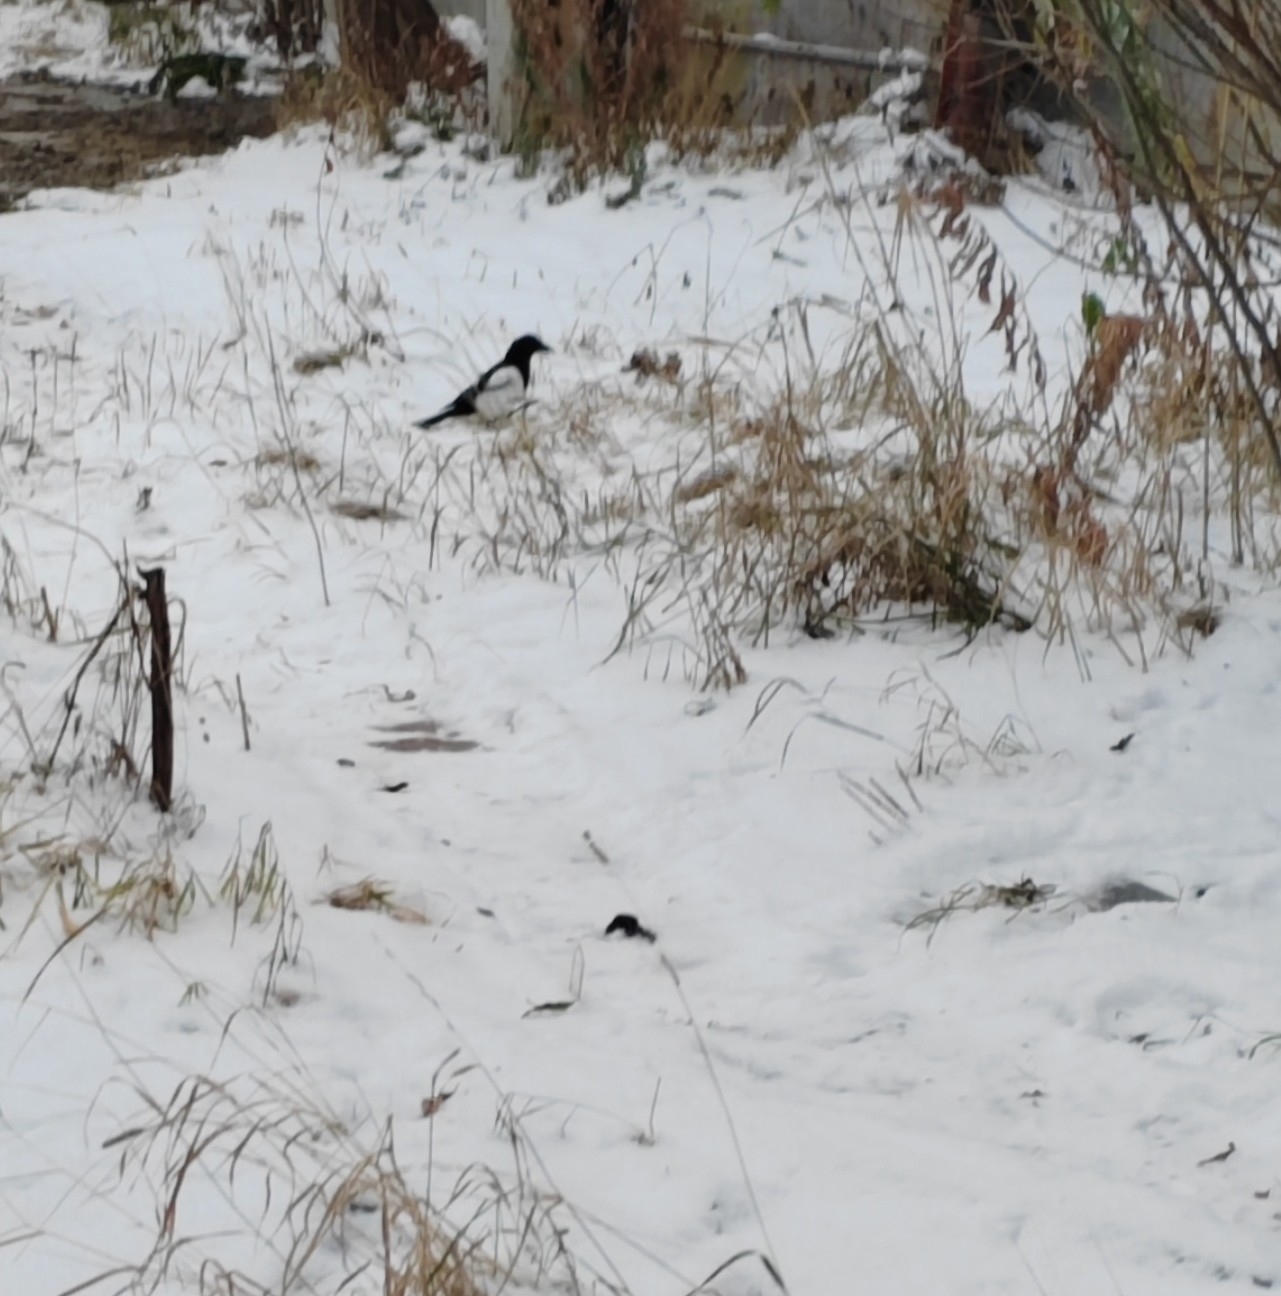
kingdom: Animalia
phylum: Chordata
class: Aves
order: Passeriformes
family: Corvidae
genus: Pica
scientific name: Pica pica
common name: Eurasian magpie
